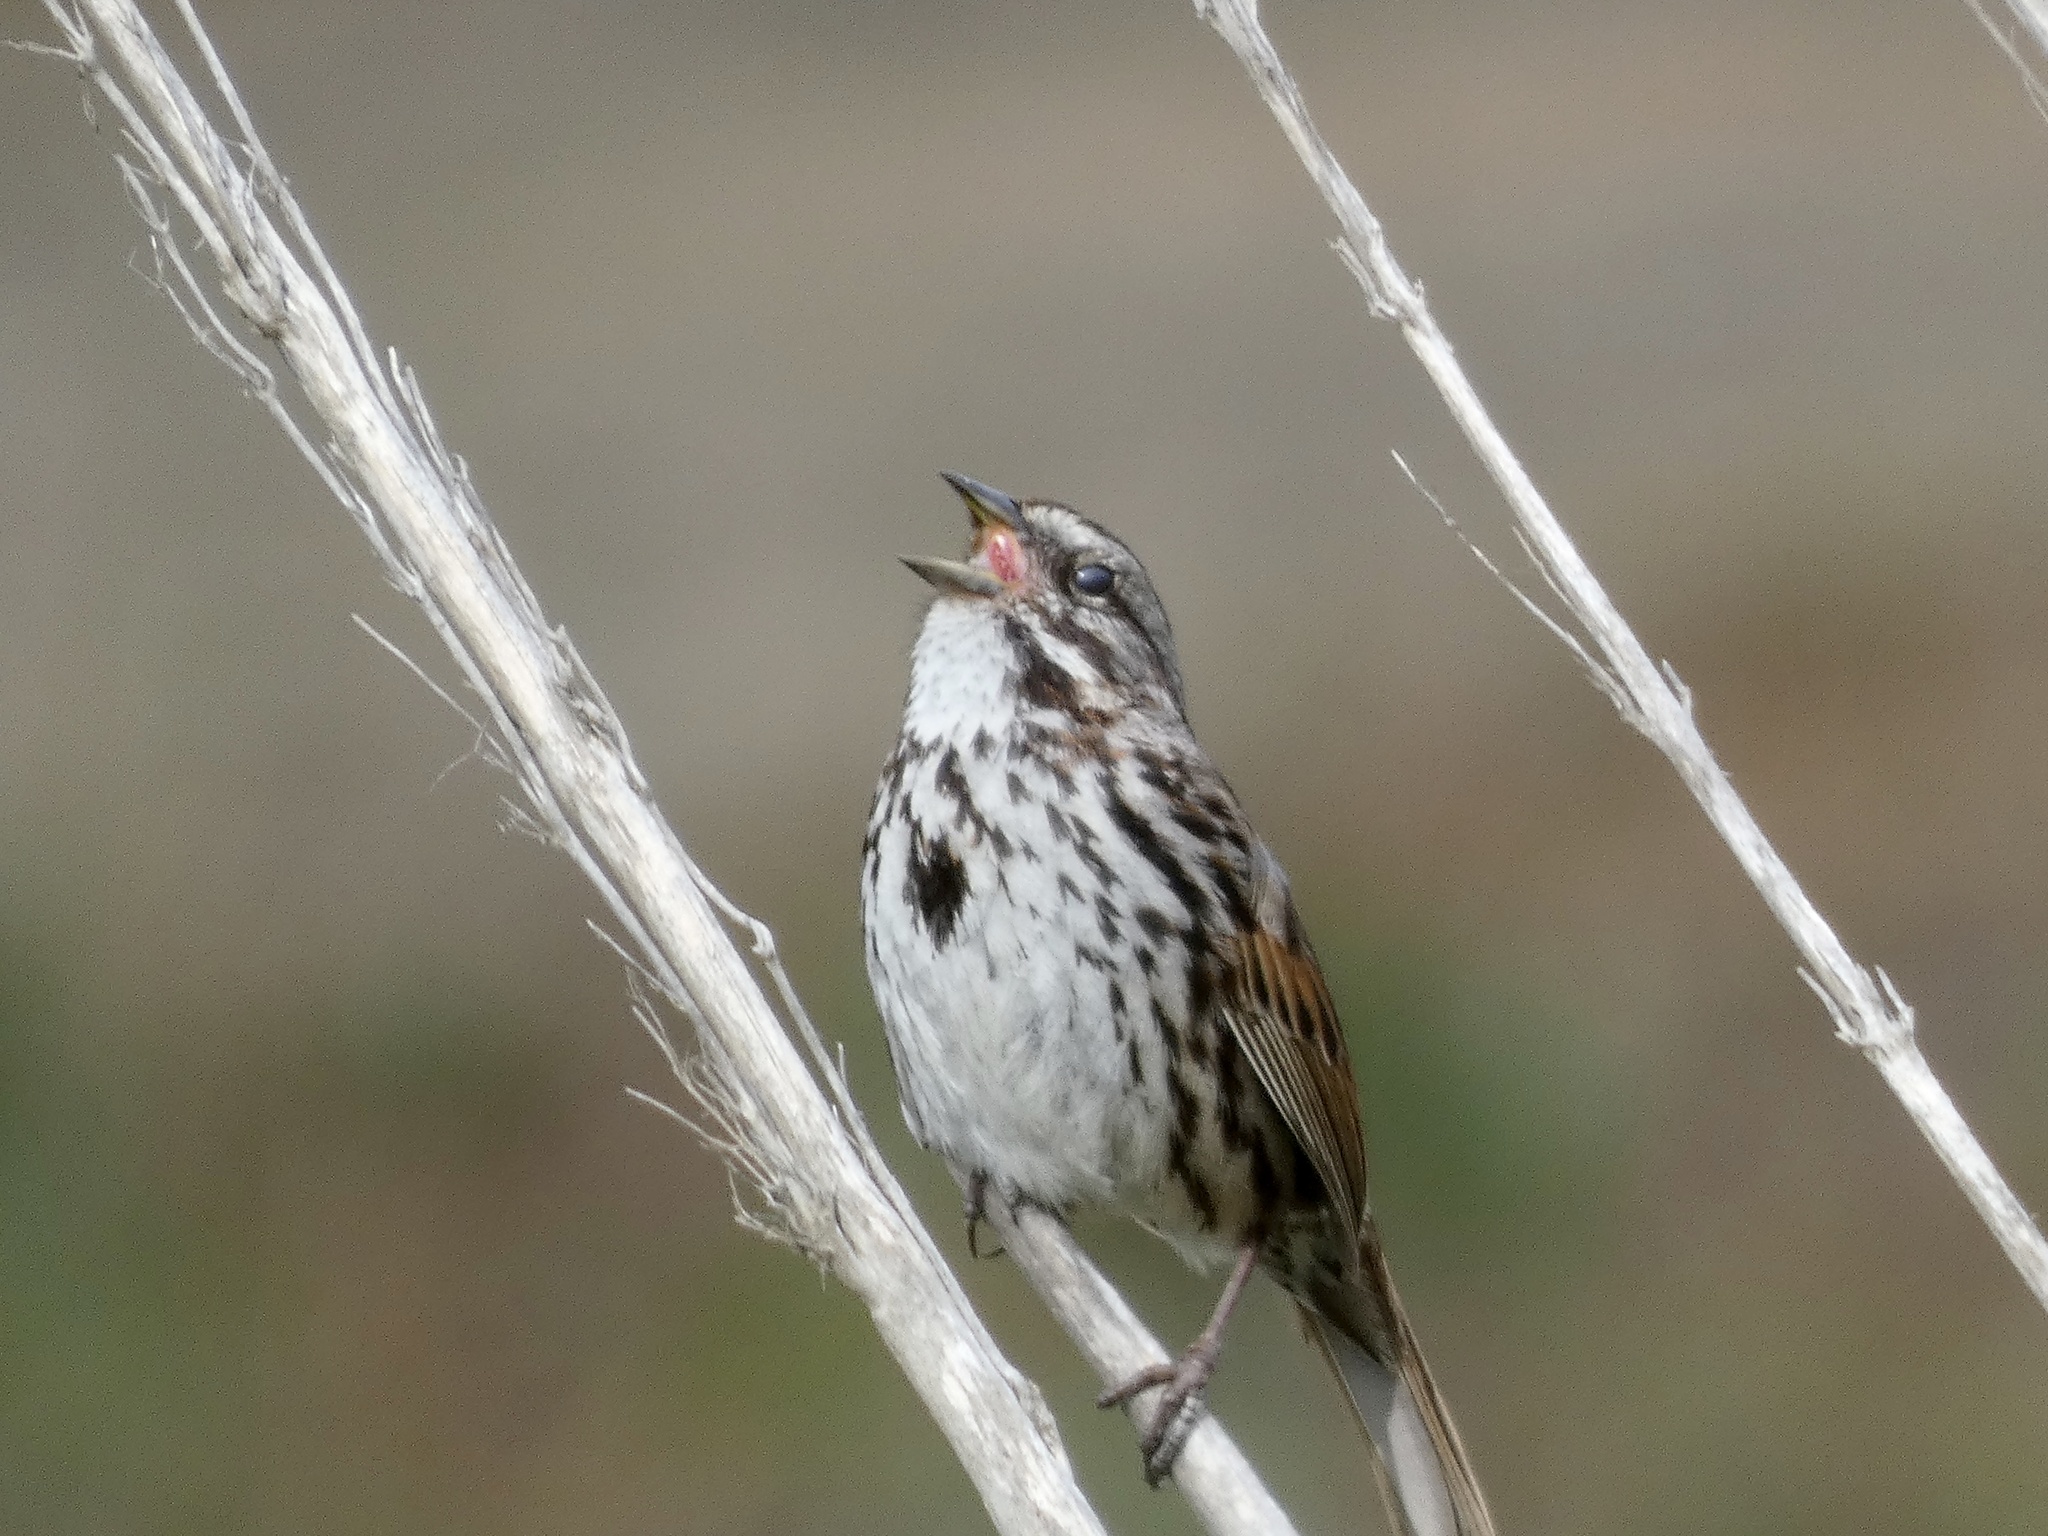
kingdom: Animalia
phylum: Chordata
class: Aves
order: Passeriformes
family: Passerellidae
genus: Melospiza
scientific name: Melospiza melodia
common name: Song sparrow
